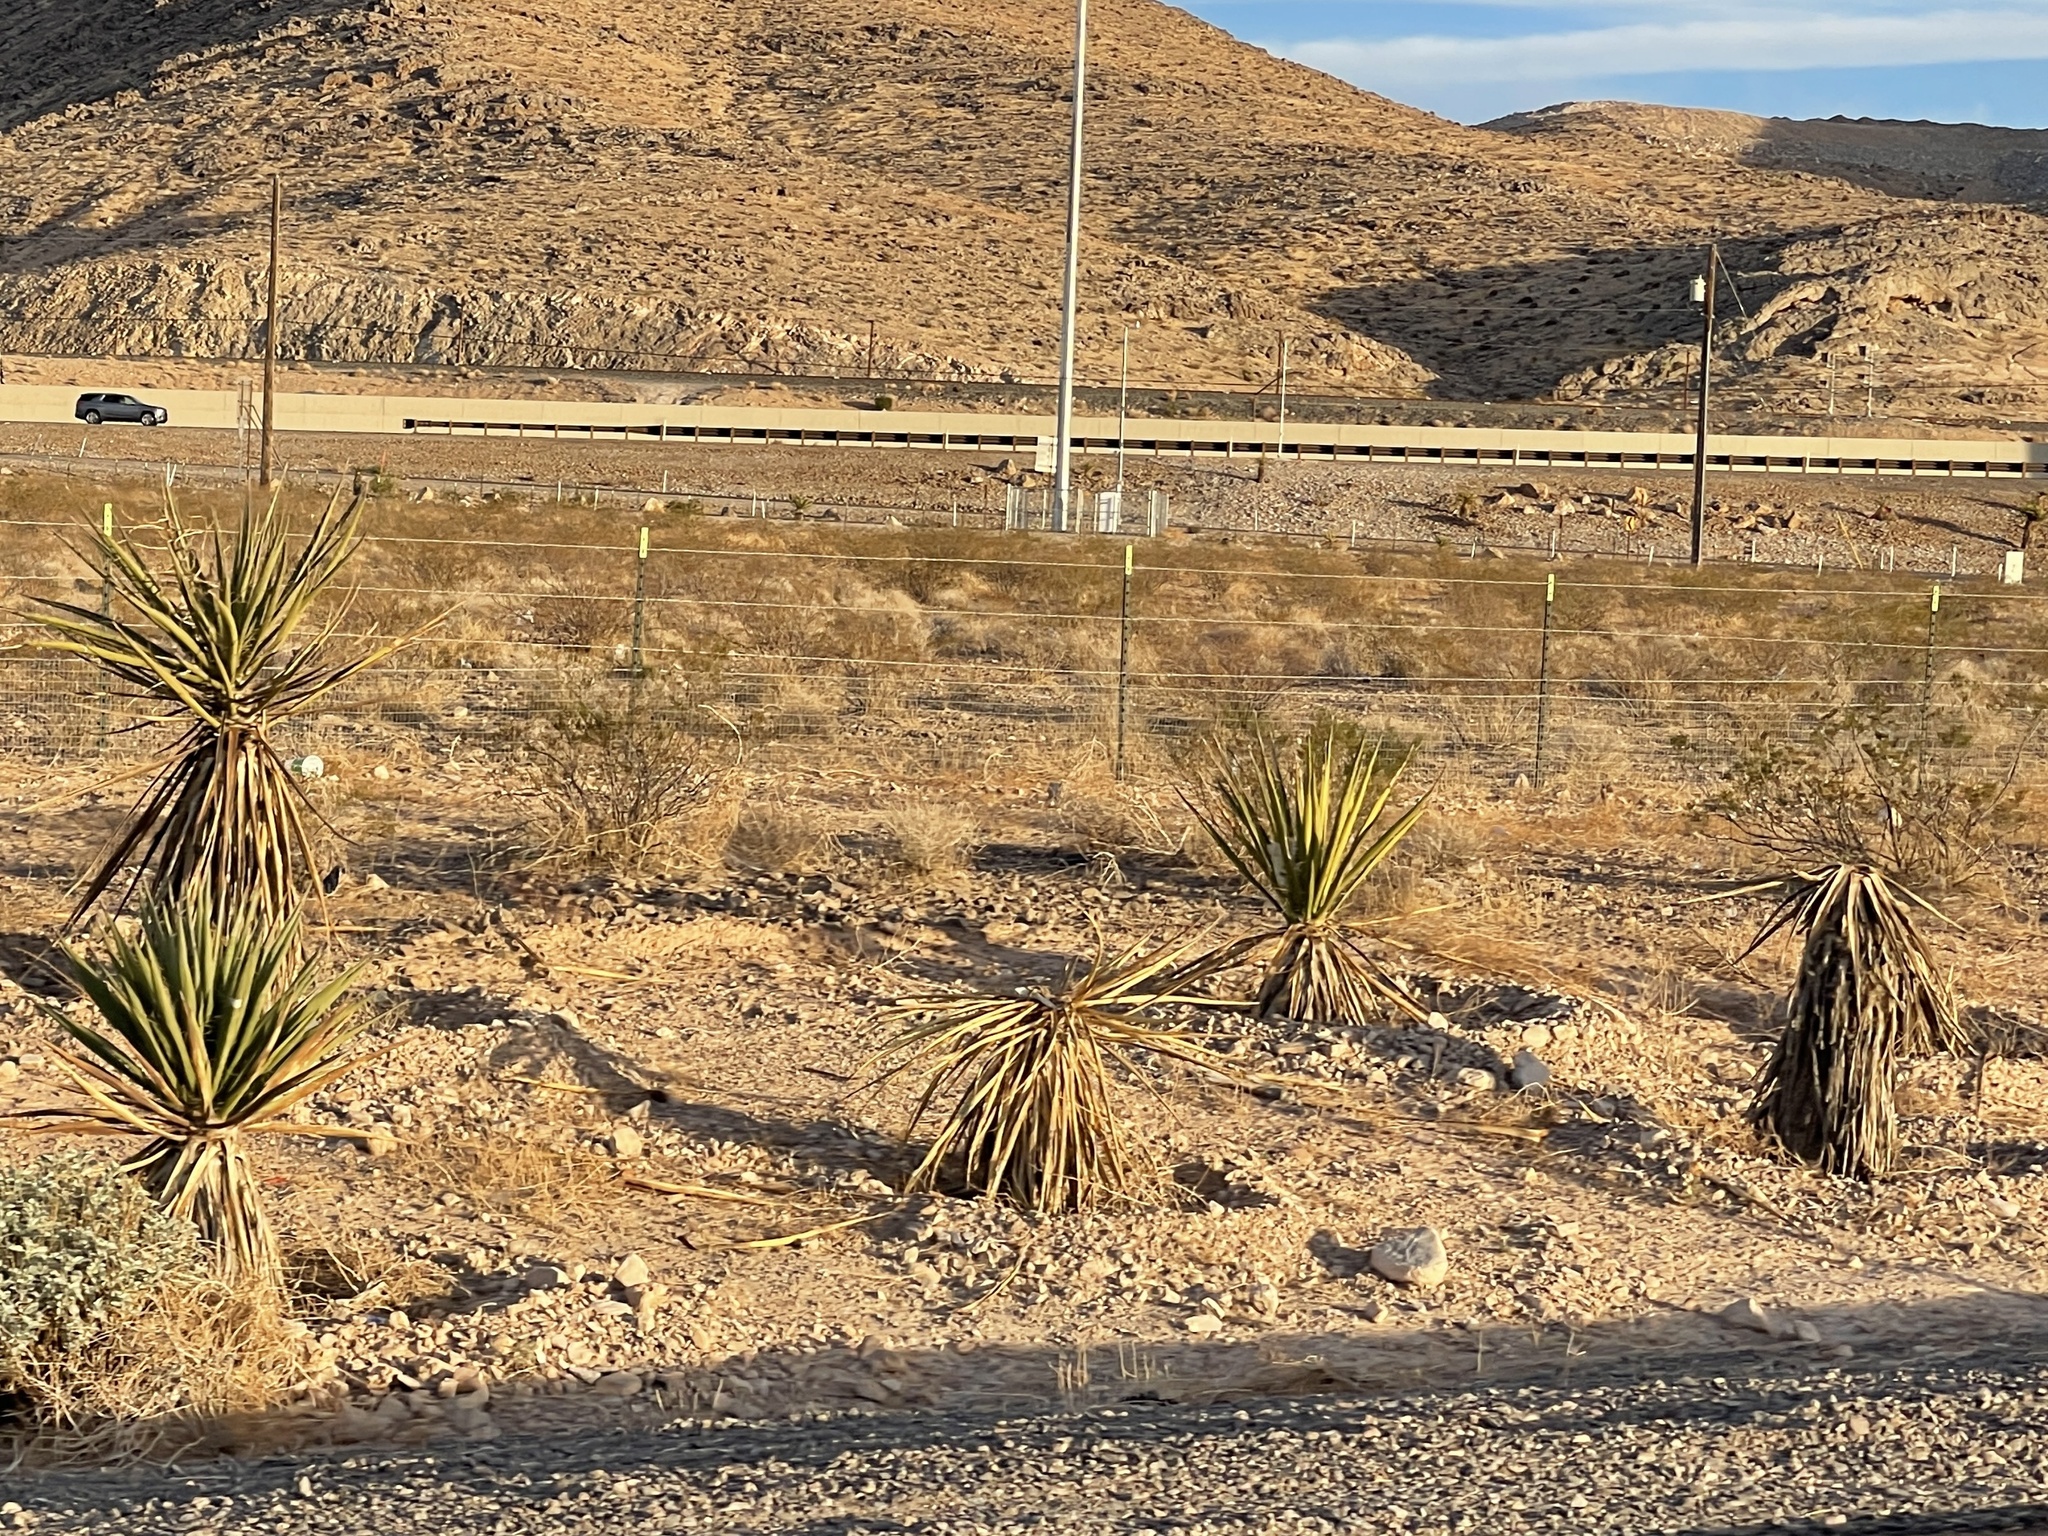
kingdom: Plantae
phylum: Tracheophyta
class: Liliopsida
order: Asparagales
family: Asparagaceae
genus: Yucca
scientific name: Yucca schidigera
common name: Mojave yucca
